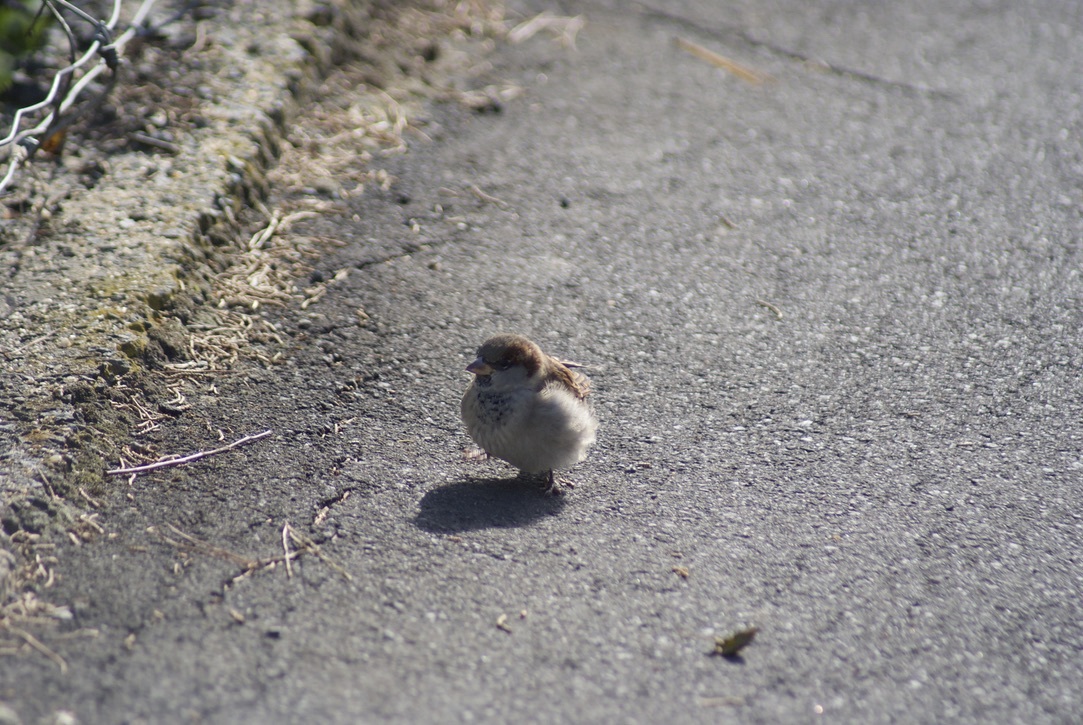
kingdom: Animalia
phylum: Chordata
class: Aves
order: Passeriformes
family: Passeridae
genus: Passer
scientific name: Passer domesticus
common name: House sparrow
